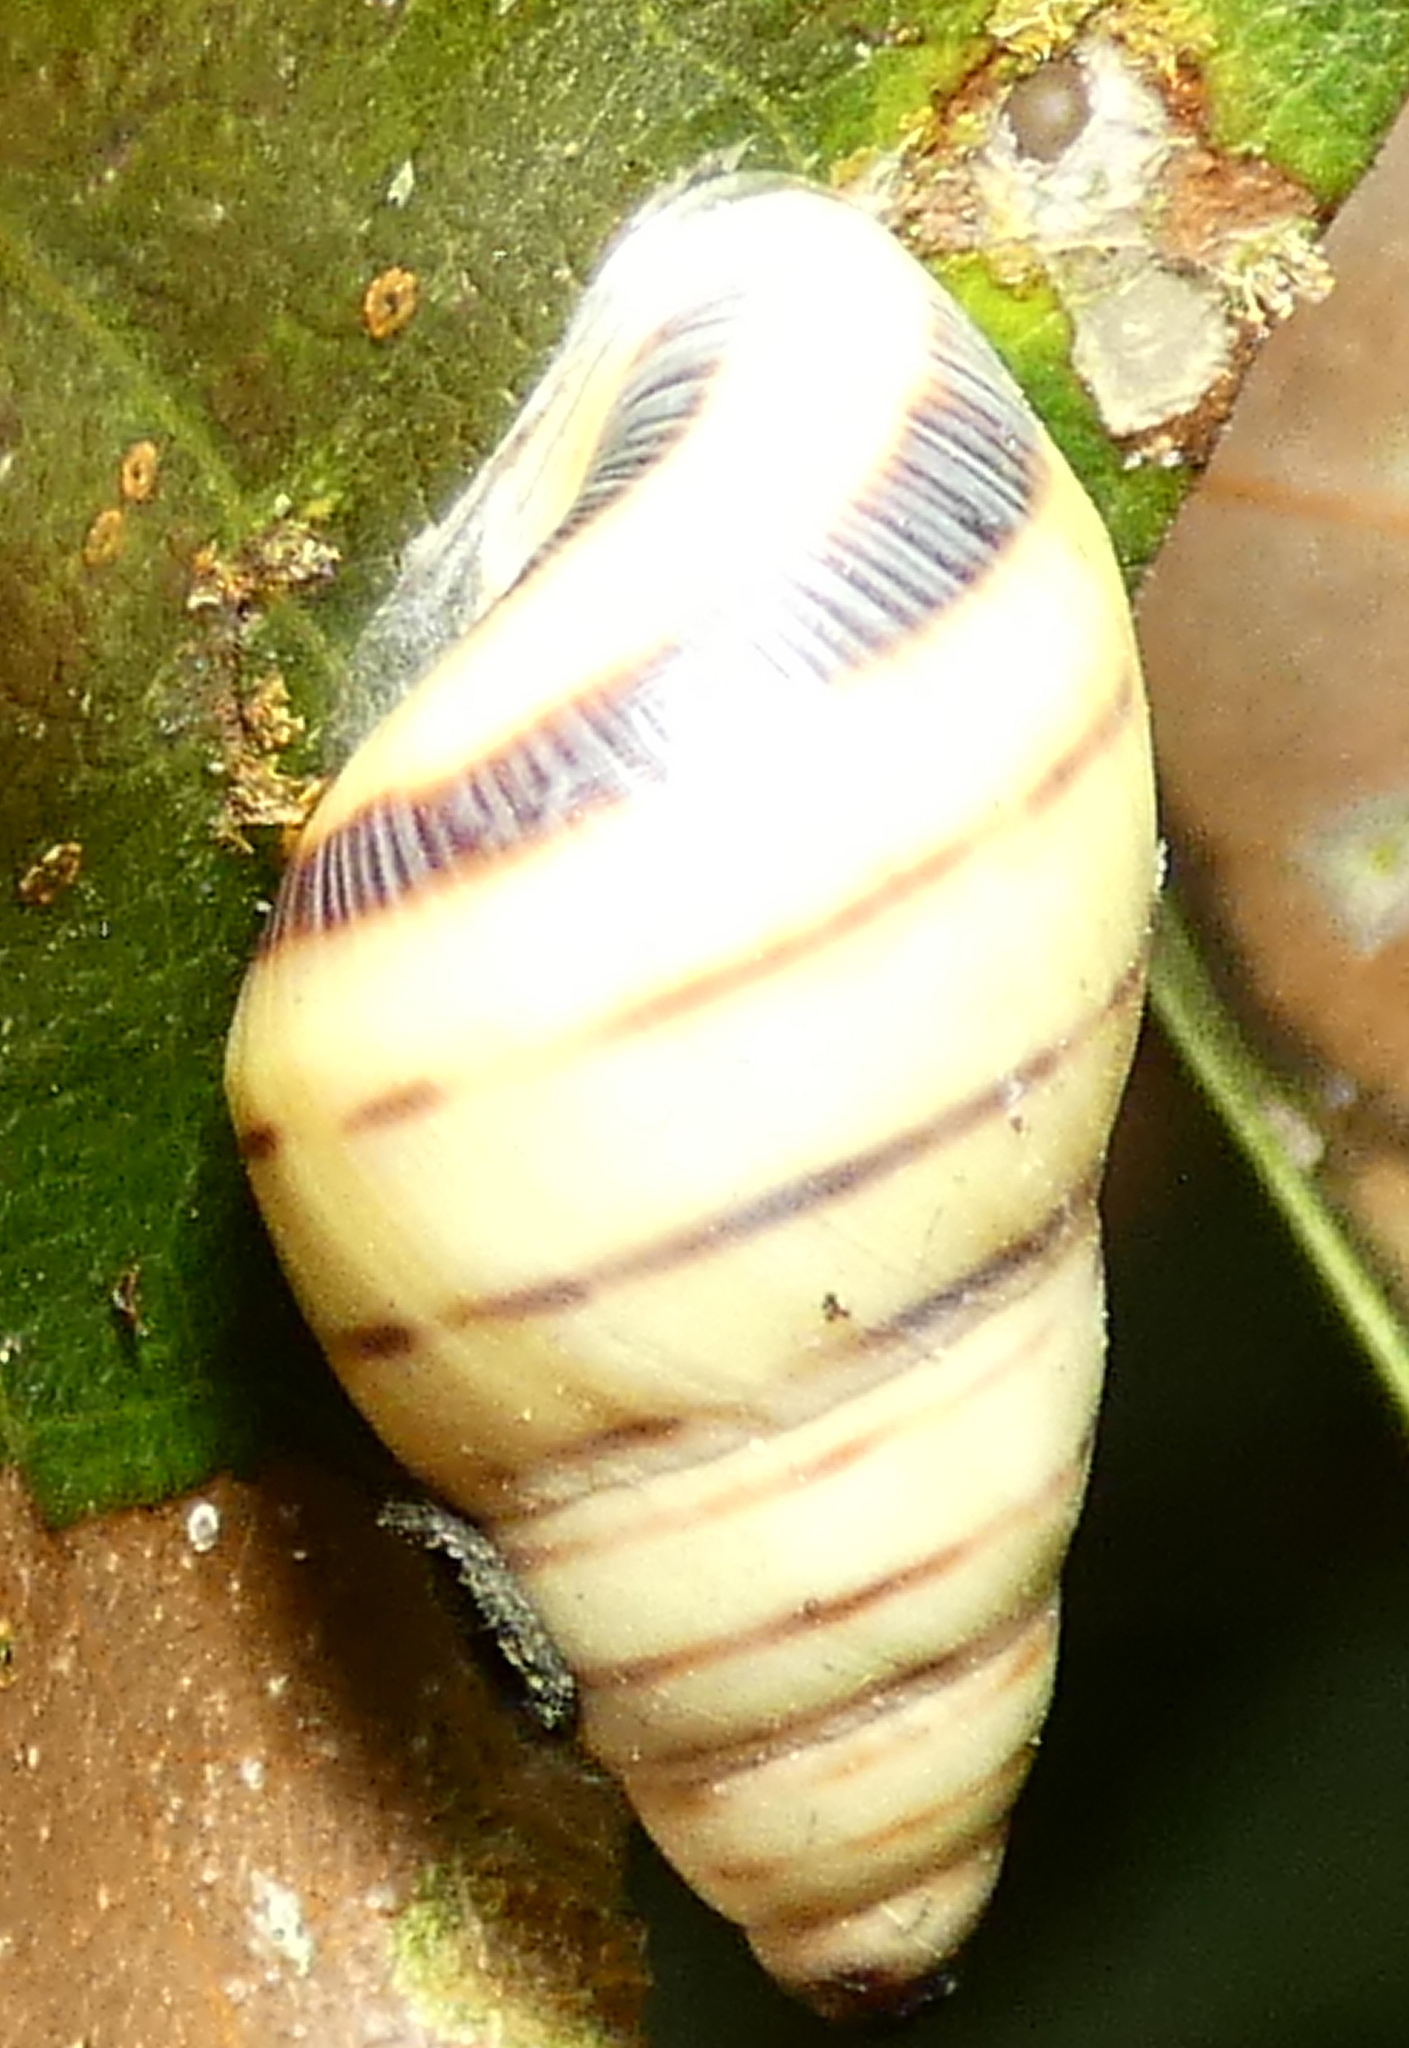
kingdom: Animalia
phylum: Mollusca
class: Gastropoda
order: Stylommatophora
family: Bulimulidae
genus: Drymaeus
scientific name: Drymaeus
